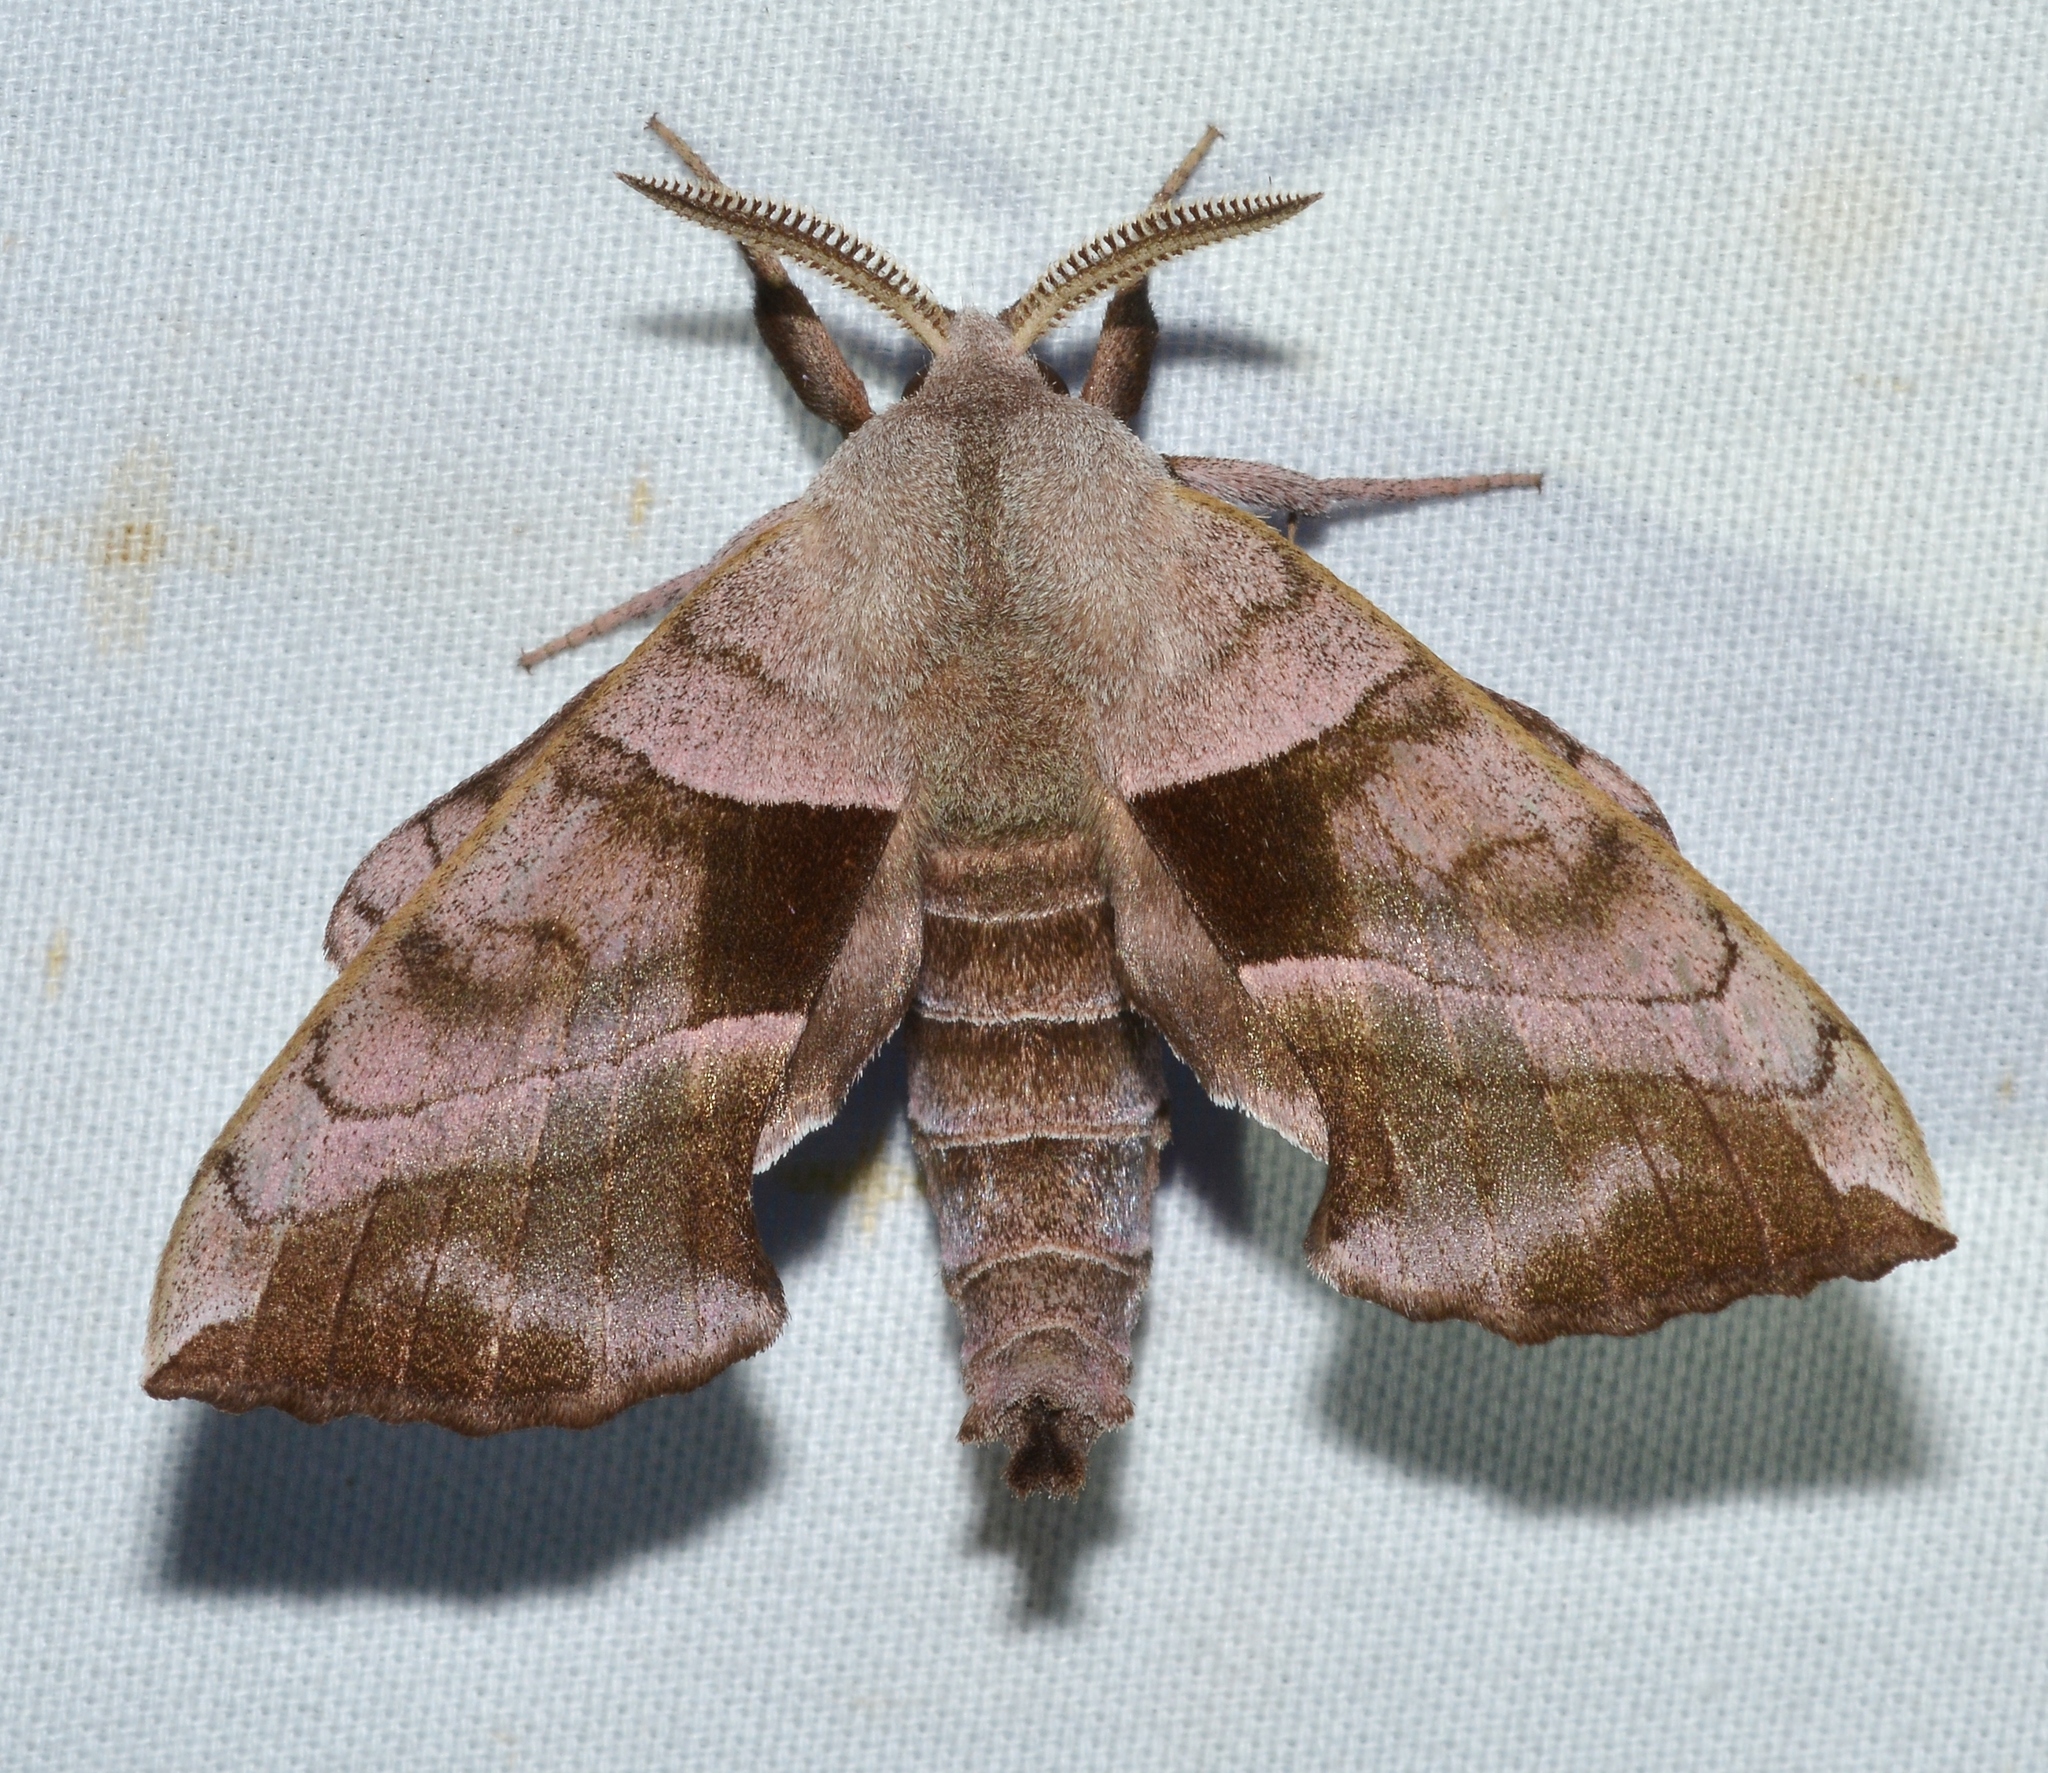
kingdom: Animalia
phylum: Arthropoda
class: Insecta
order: Lepidoptera
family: Sphingidae
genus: Amorpha
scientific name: Amorpha juglandis
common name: Walnut sphinx
